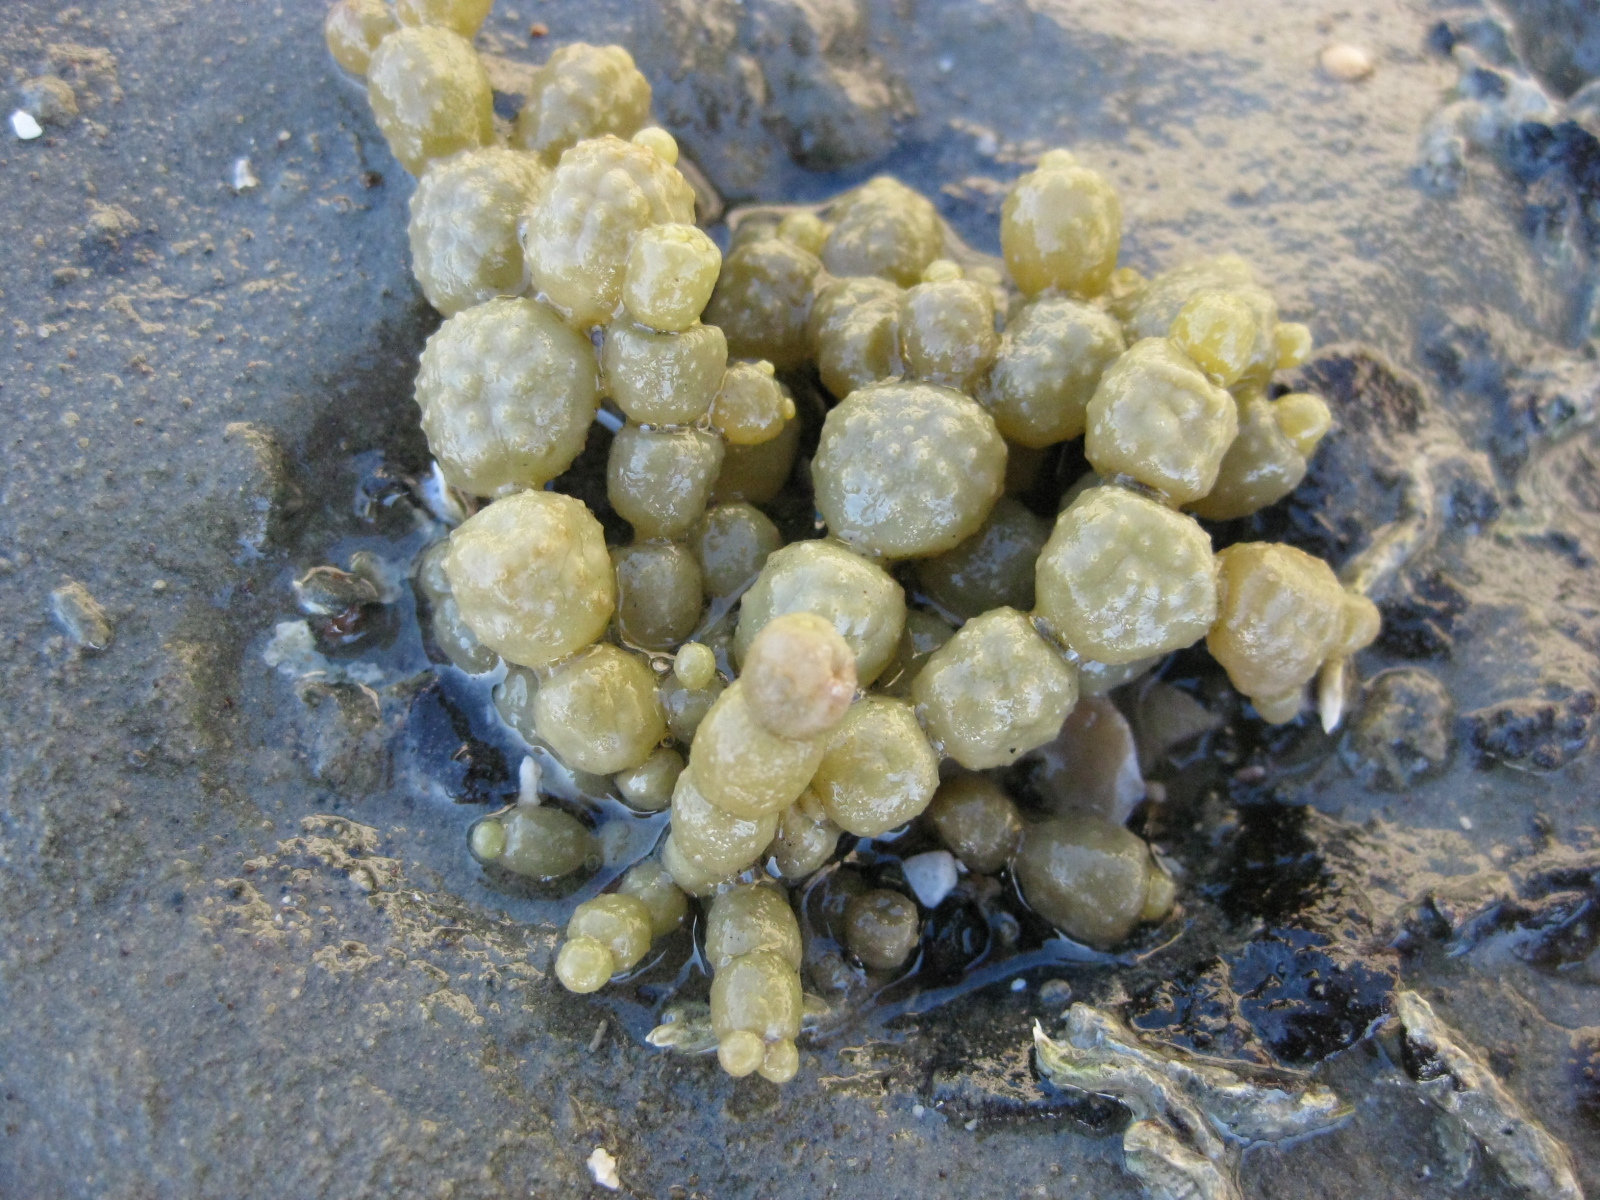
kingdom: Chromista
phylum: Ochrophyta
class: Phaeophyceae
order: Fucales
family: Hormosiraceae
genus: Hormosira
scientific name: Hormosira banksii
